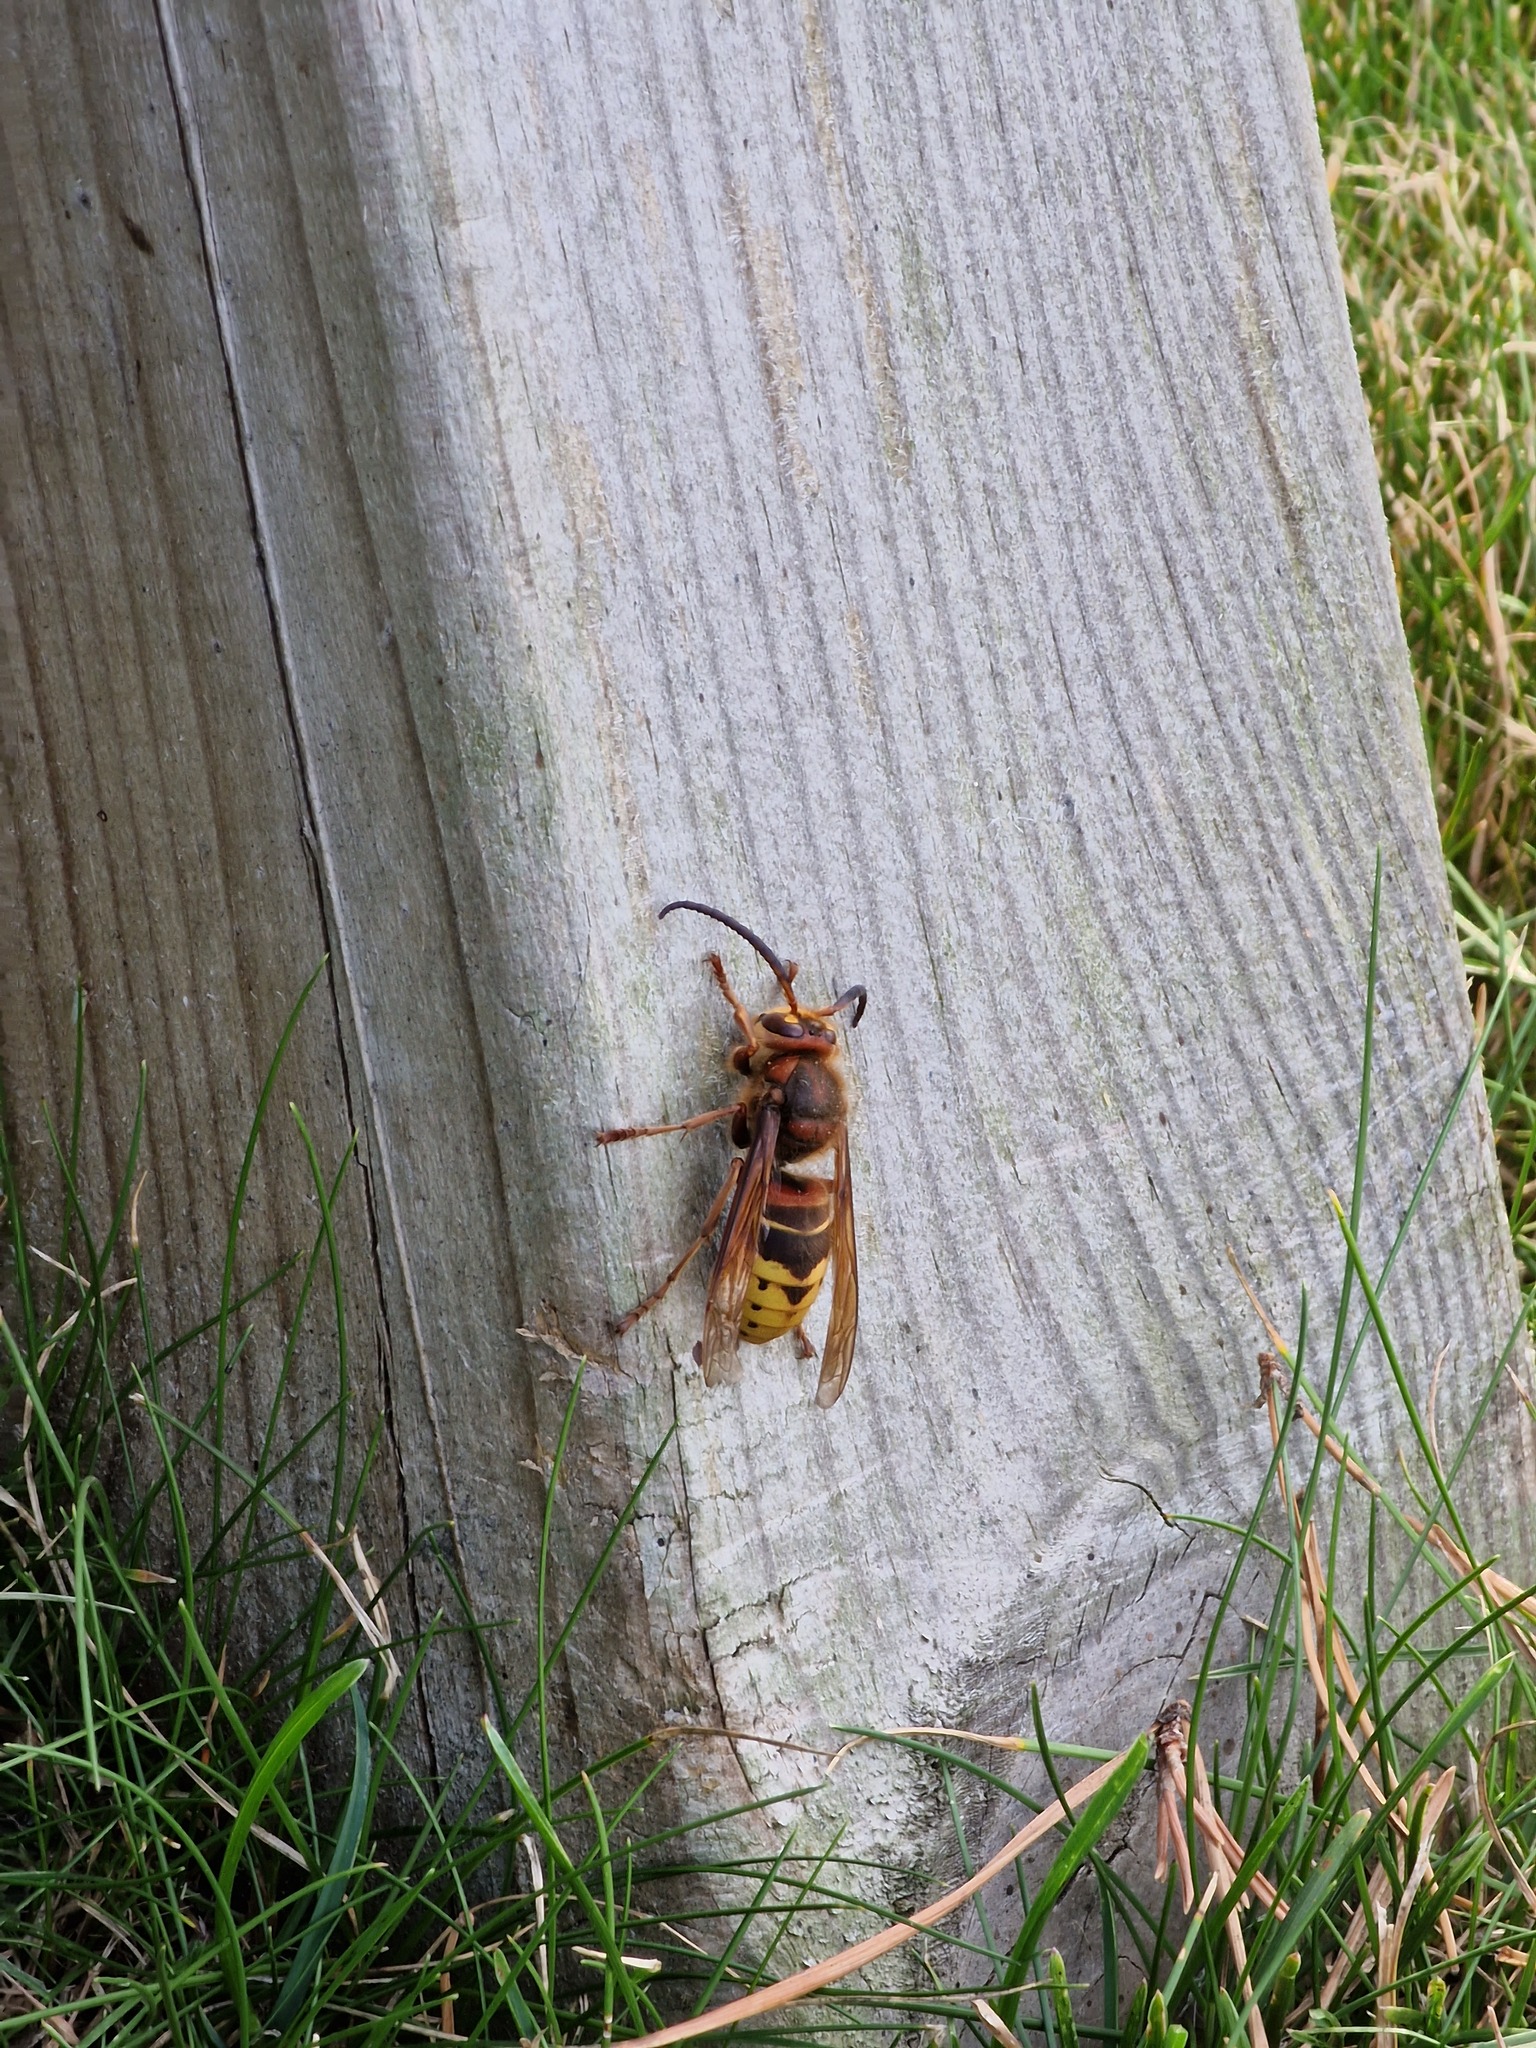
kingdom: Animalia
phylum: Arthropoda
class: Insecta
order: Hymenoptera
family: Vespidae
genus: Vespa
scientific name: Vespa crabro
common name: Hornet
